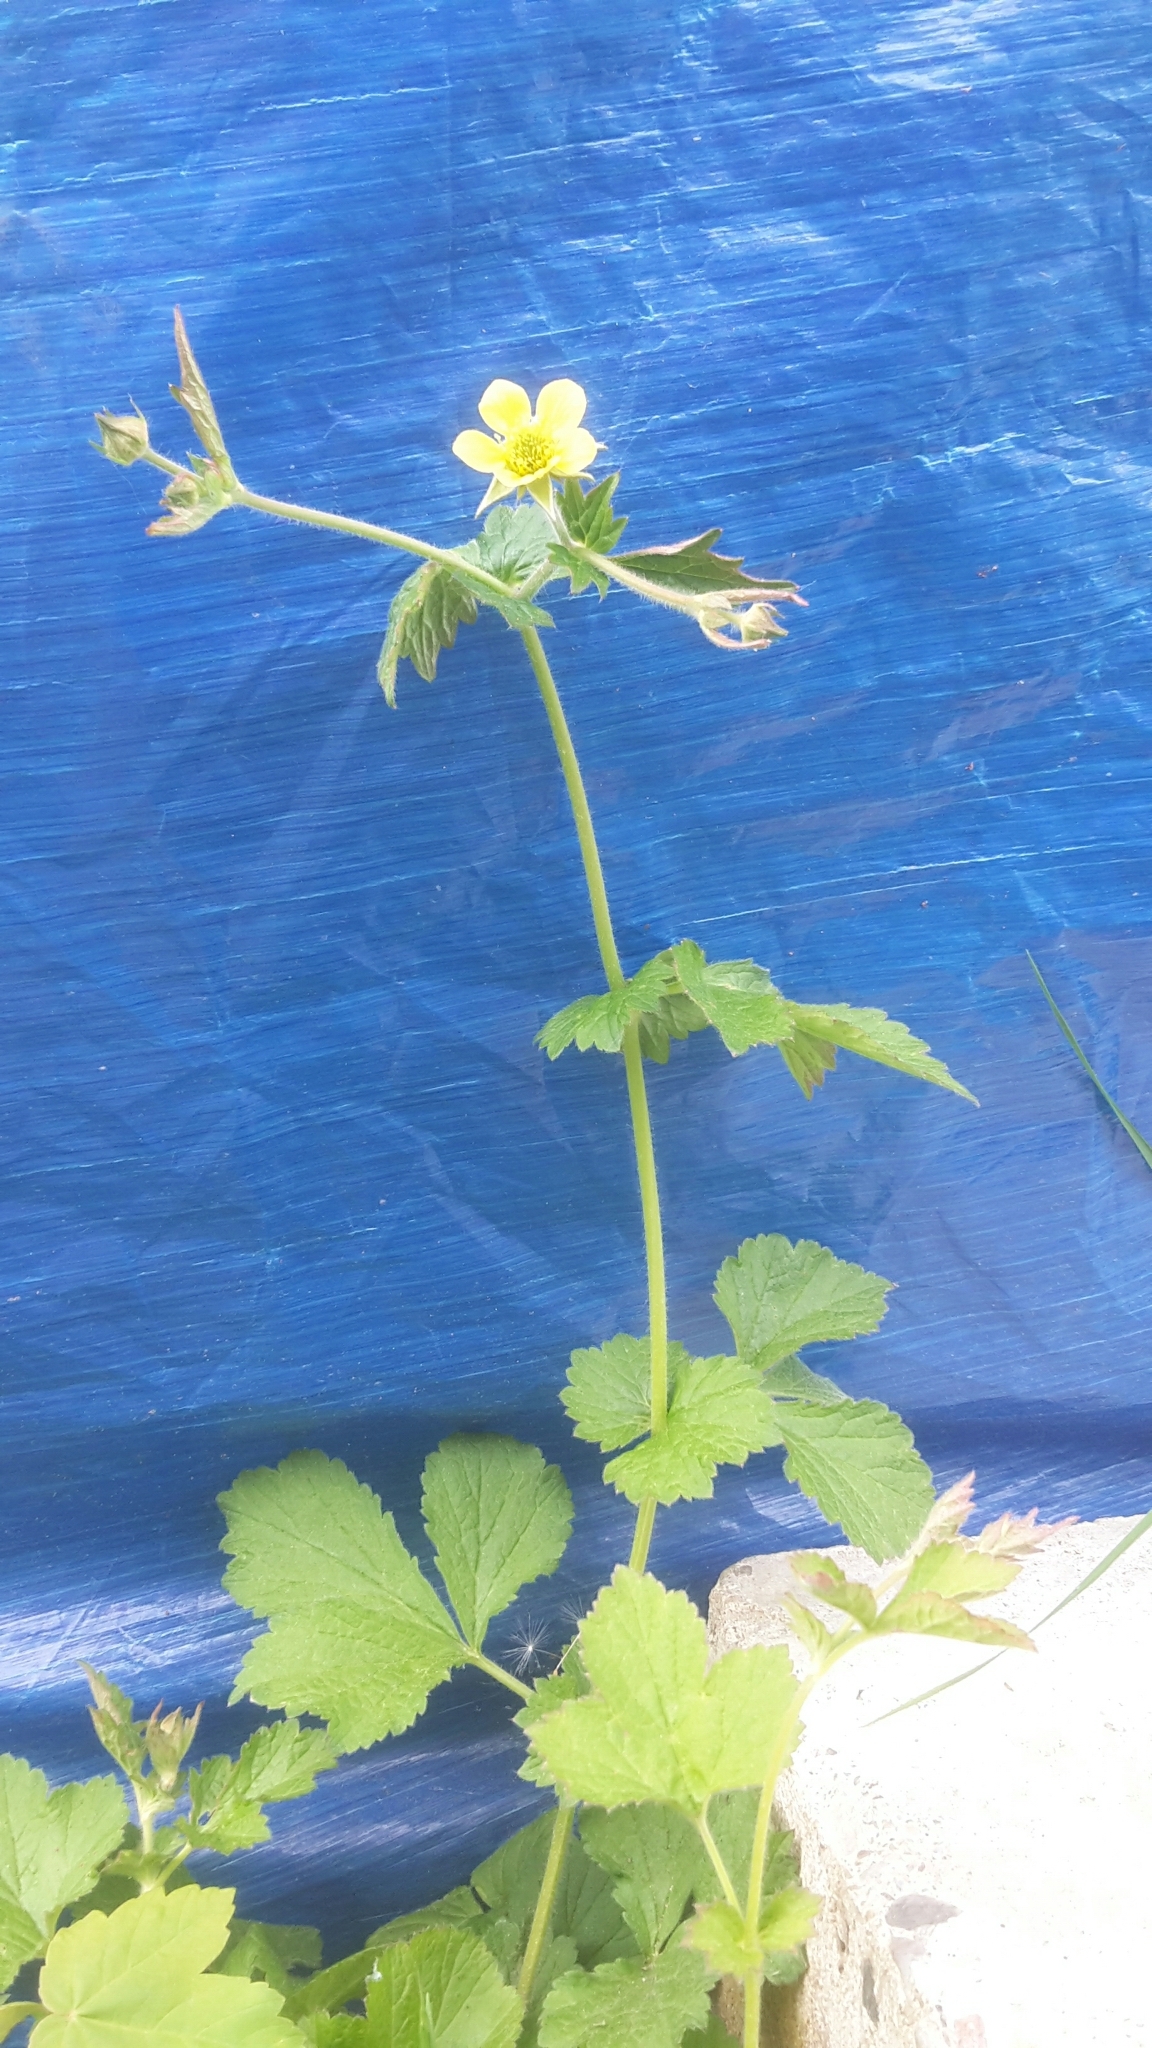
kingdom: Plantae
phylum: Tracheophyta
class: Magnoliopsida
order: Rosales
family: Rosaceae
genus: Geum
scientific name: Geum urbanum
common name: Wood avens
